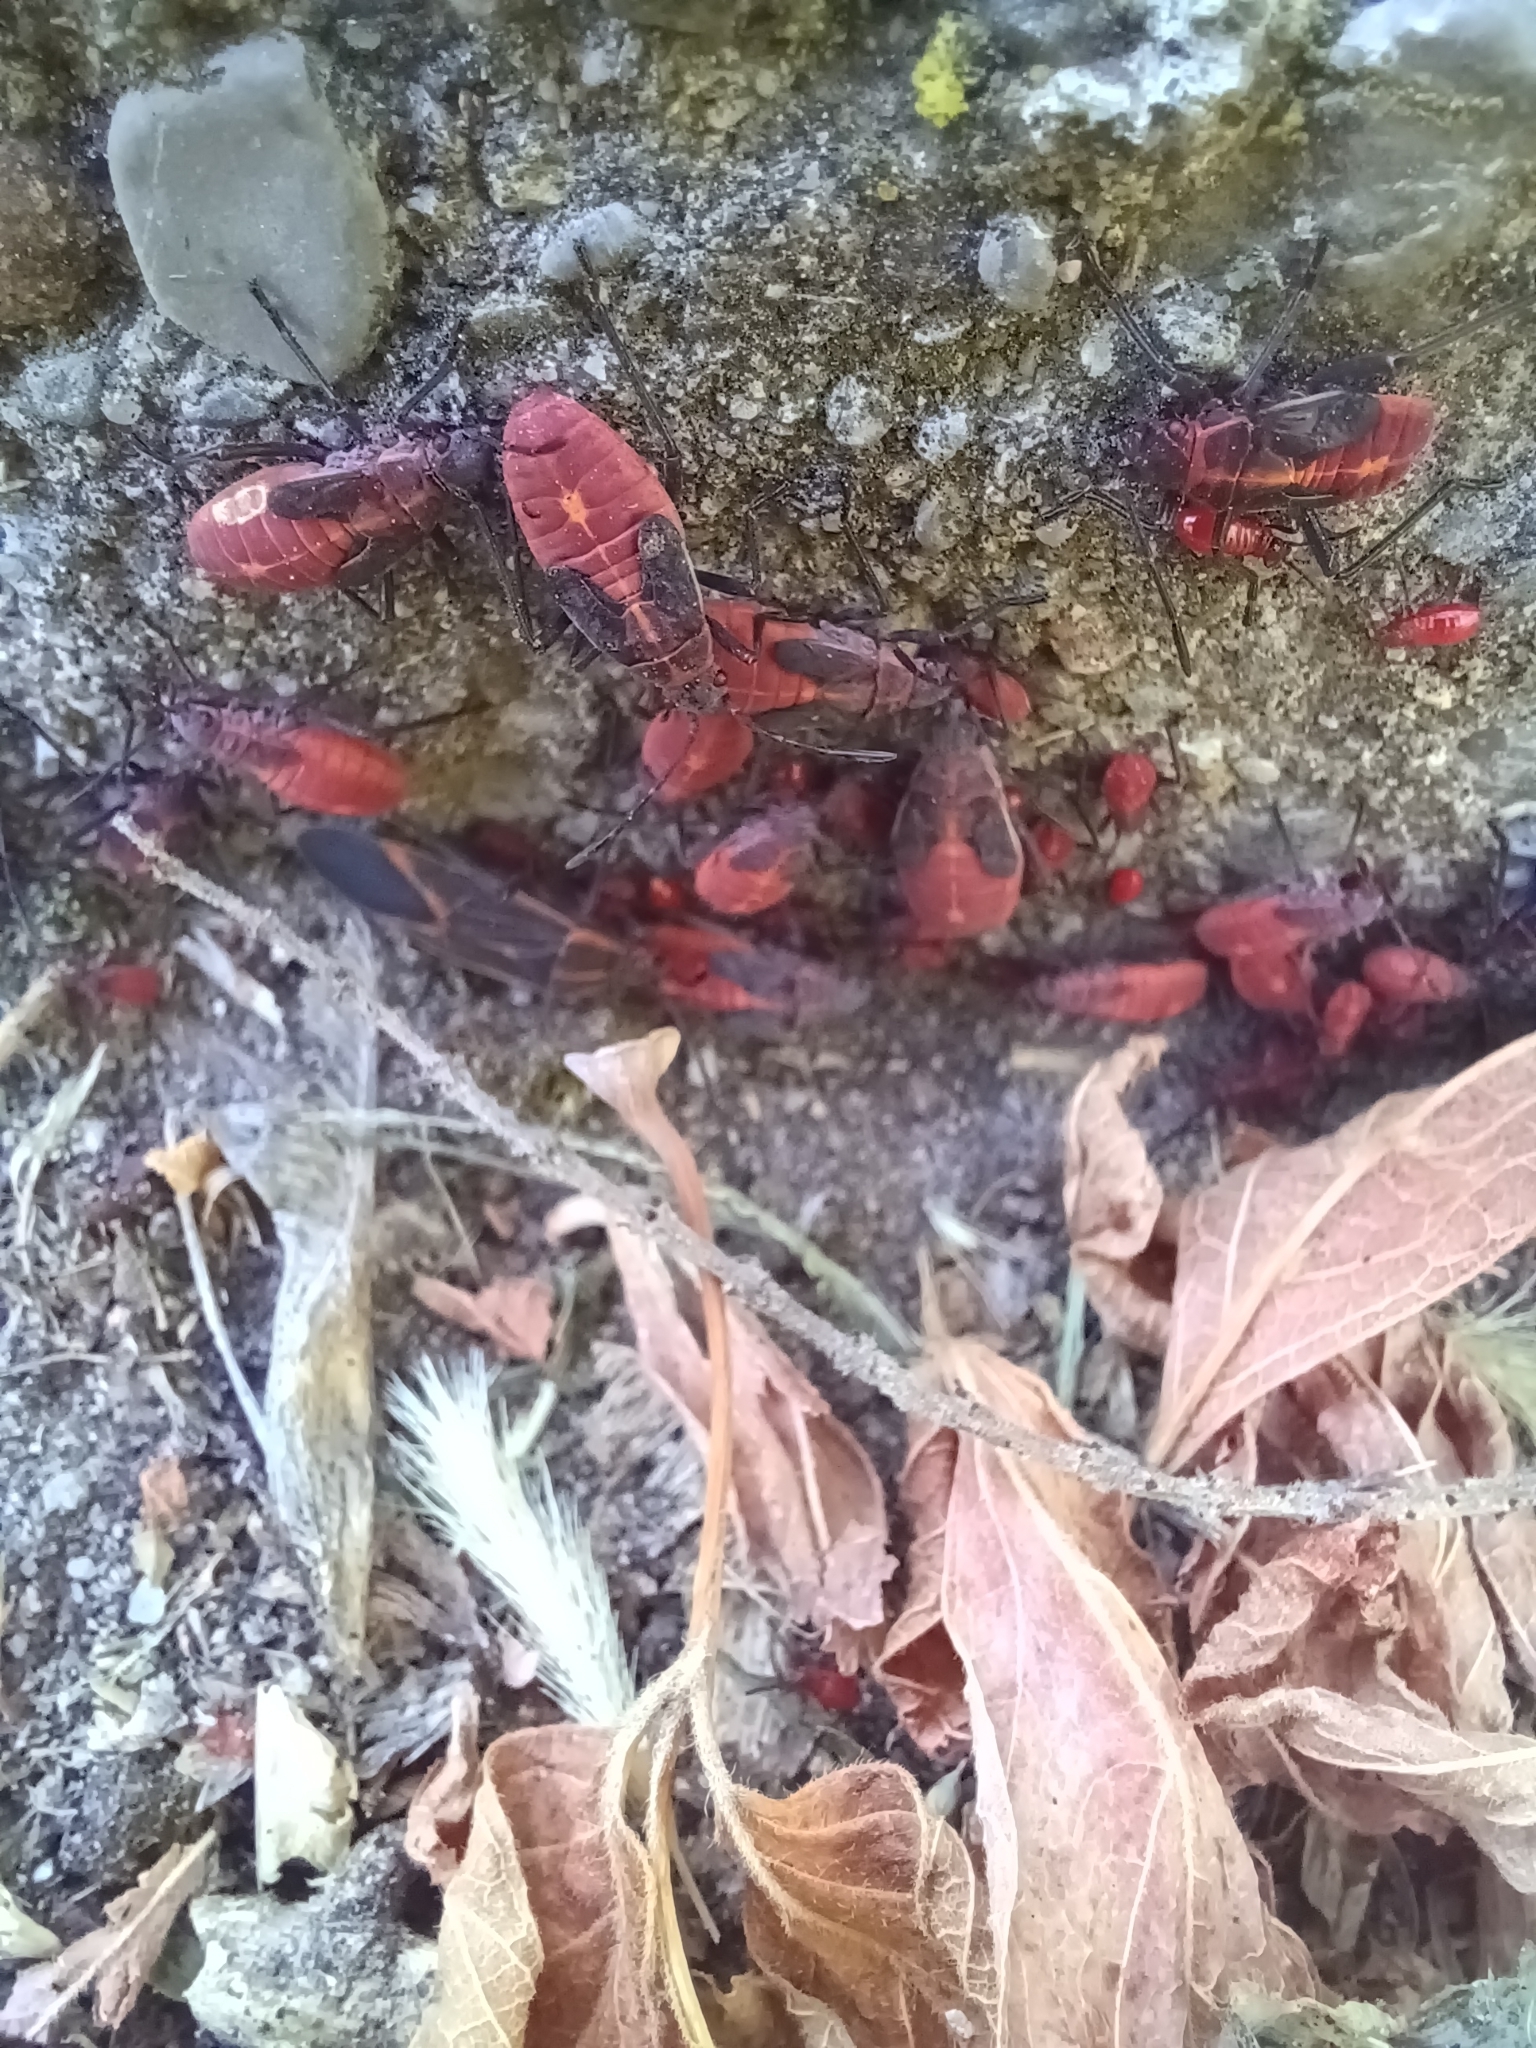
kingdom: Animalia
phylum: Arthropoda
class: Insecta
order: Hemiptera
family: Rhopalidae
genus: Boisea
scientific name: Boisea trivittata
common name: Boxelder bug
